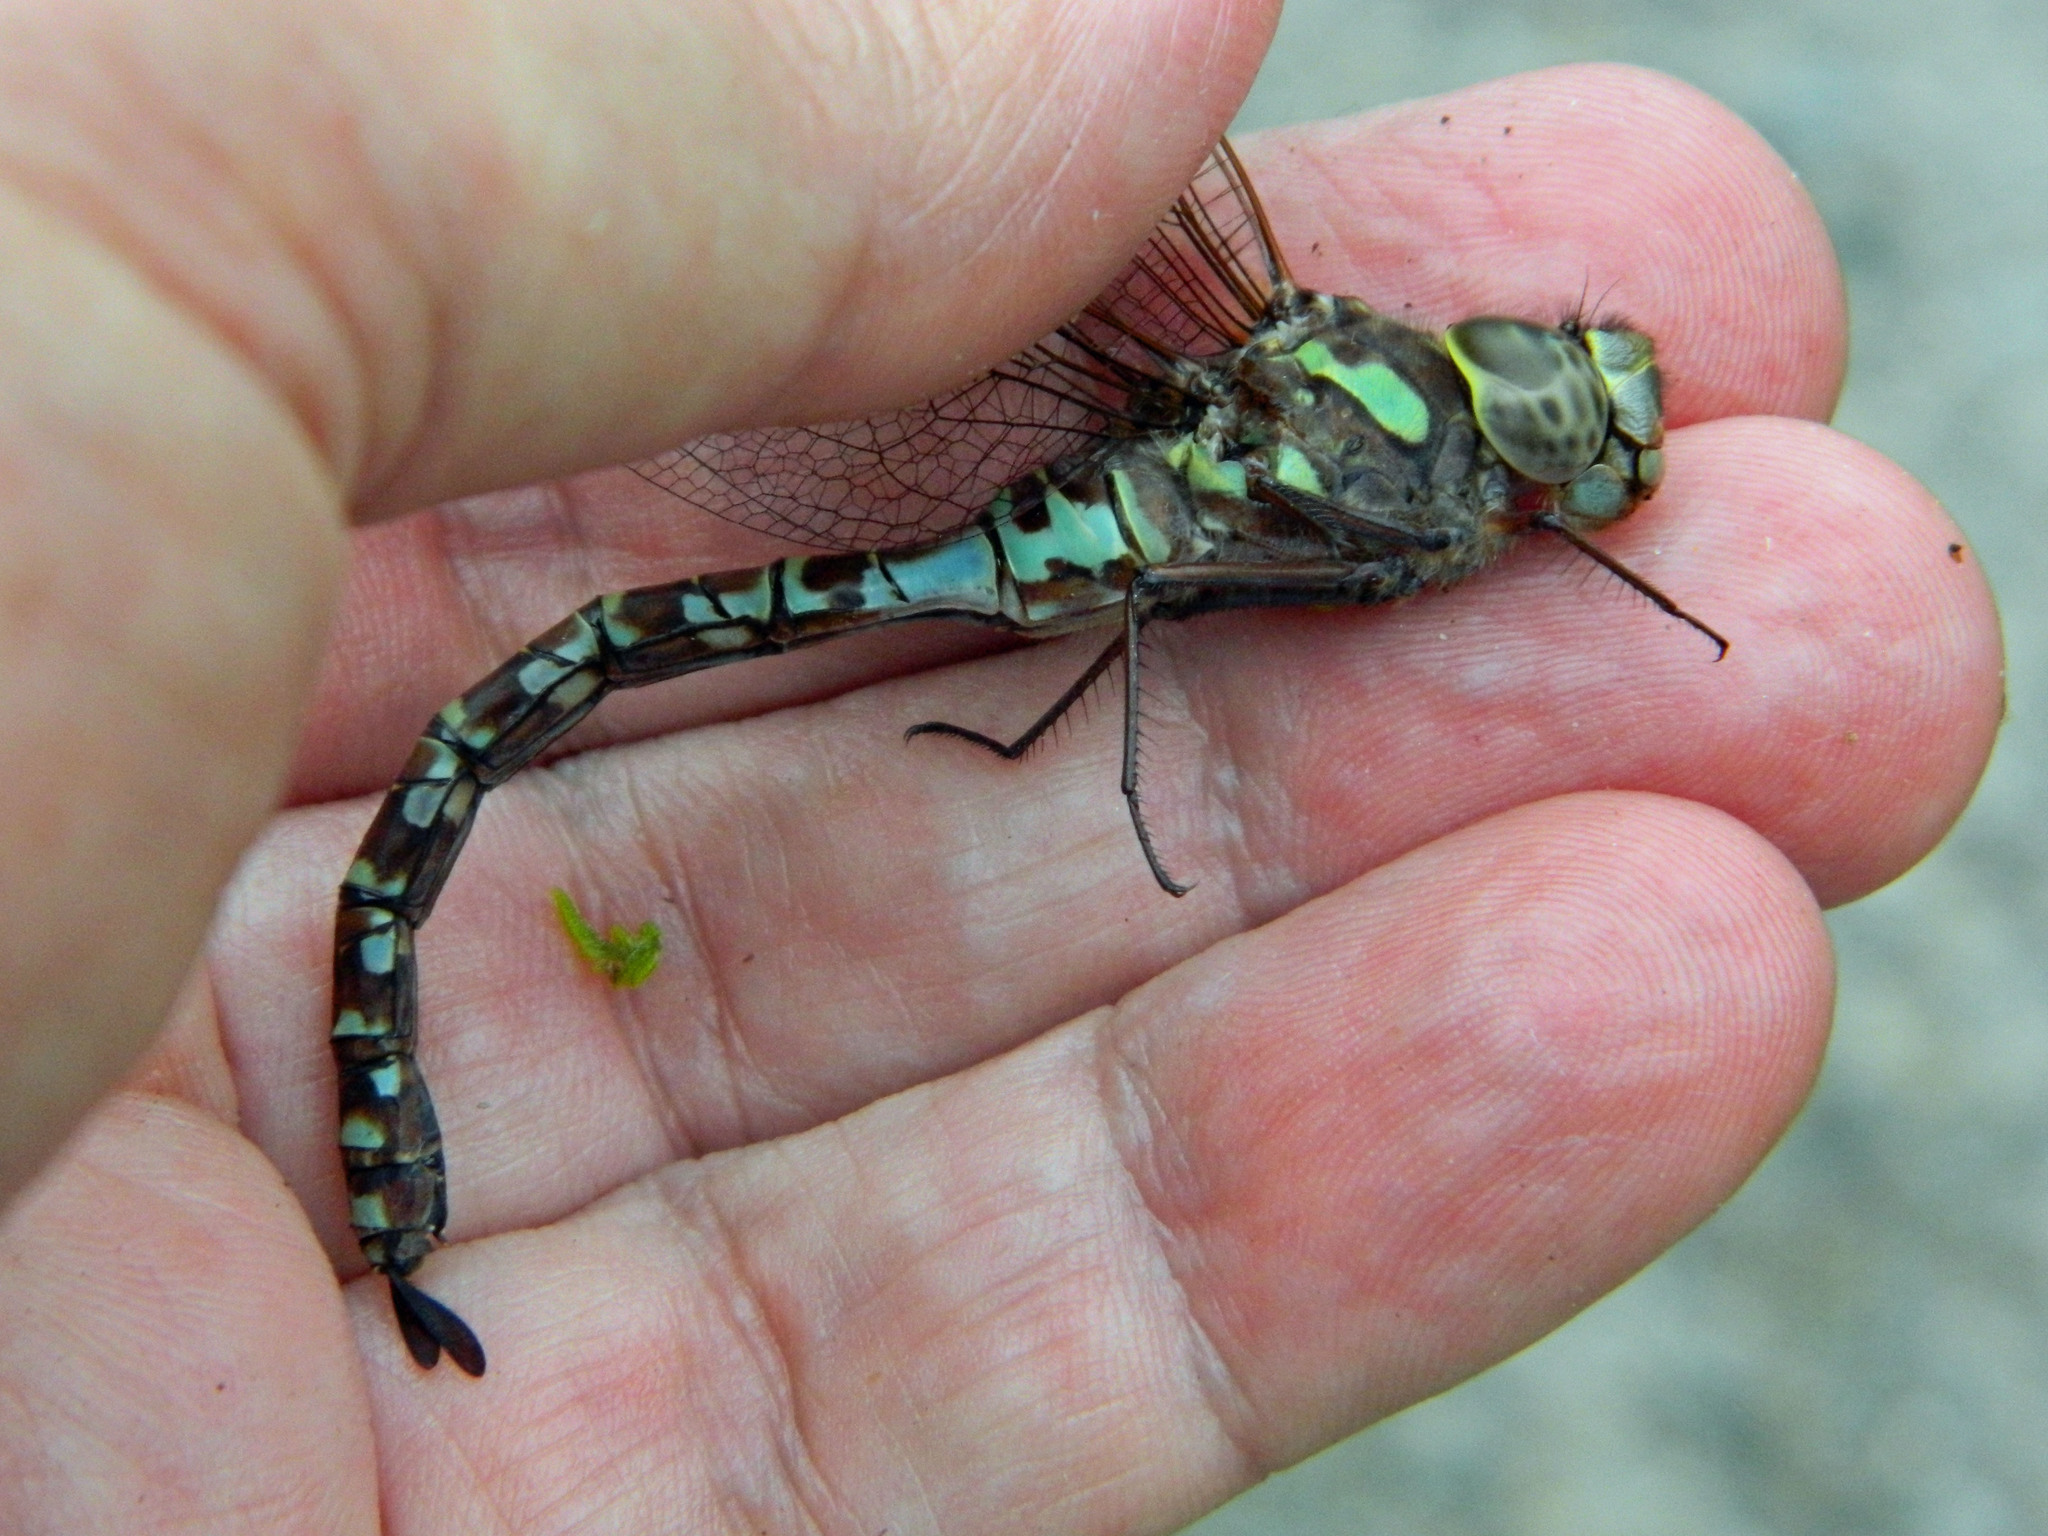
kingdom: Animalia
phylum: Arthropoda
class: Insecta
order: Odonata
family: Aeshnidae
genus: Aeshna
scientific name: Aeshna canadensis
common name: Canada darner
